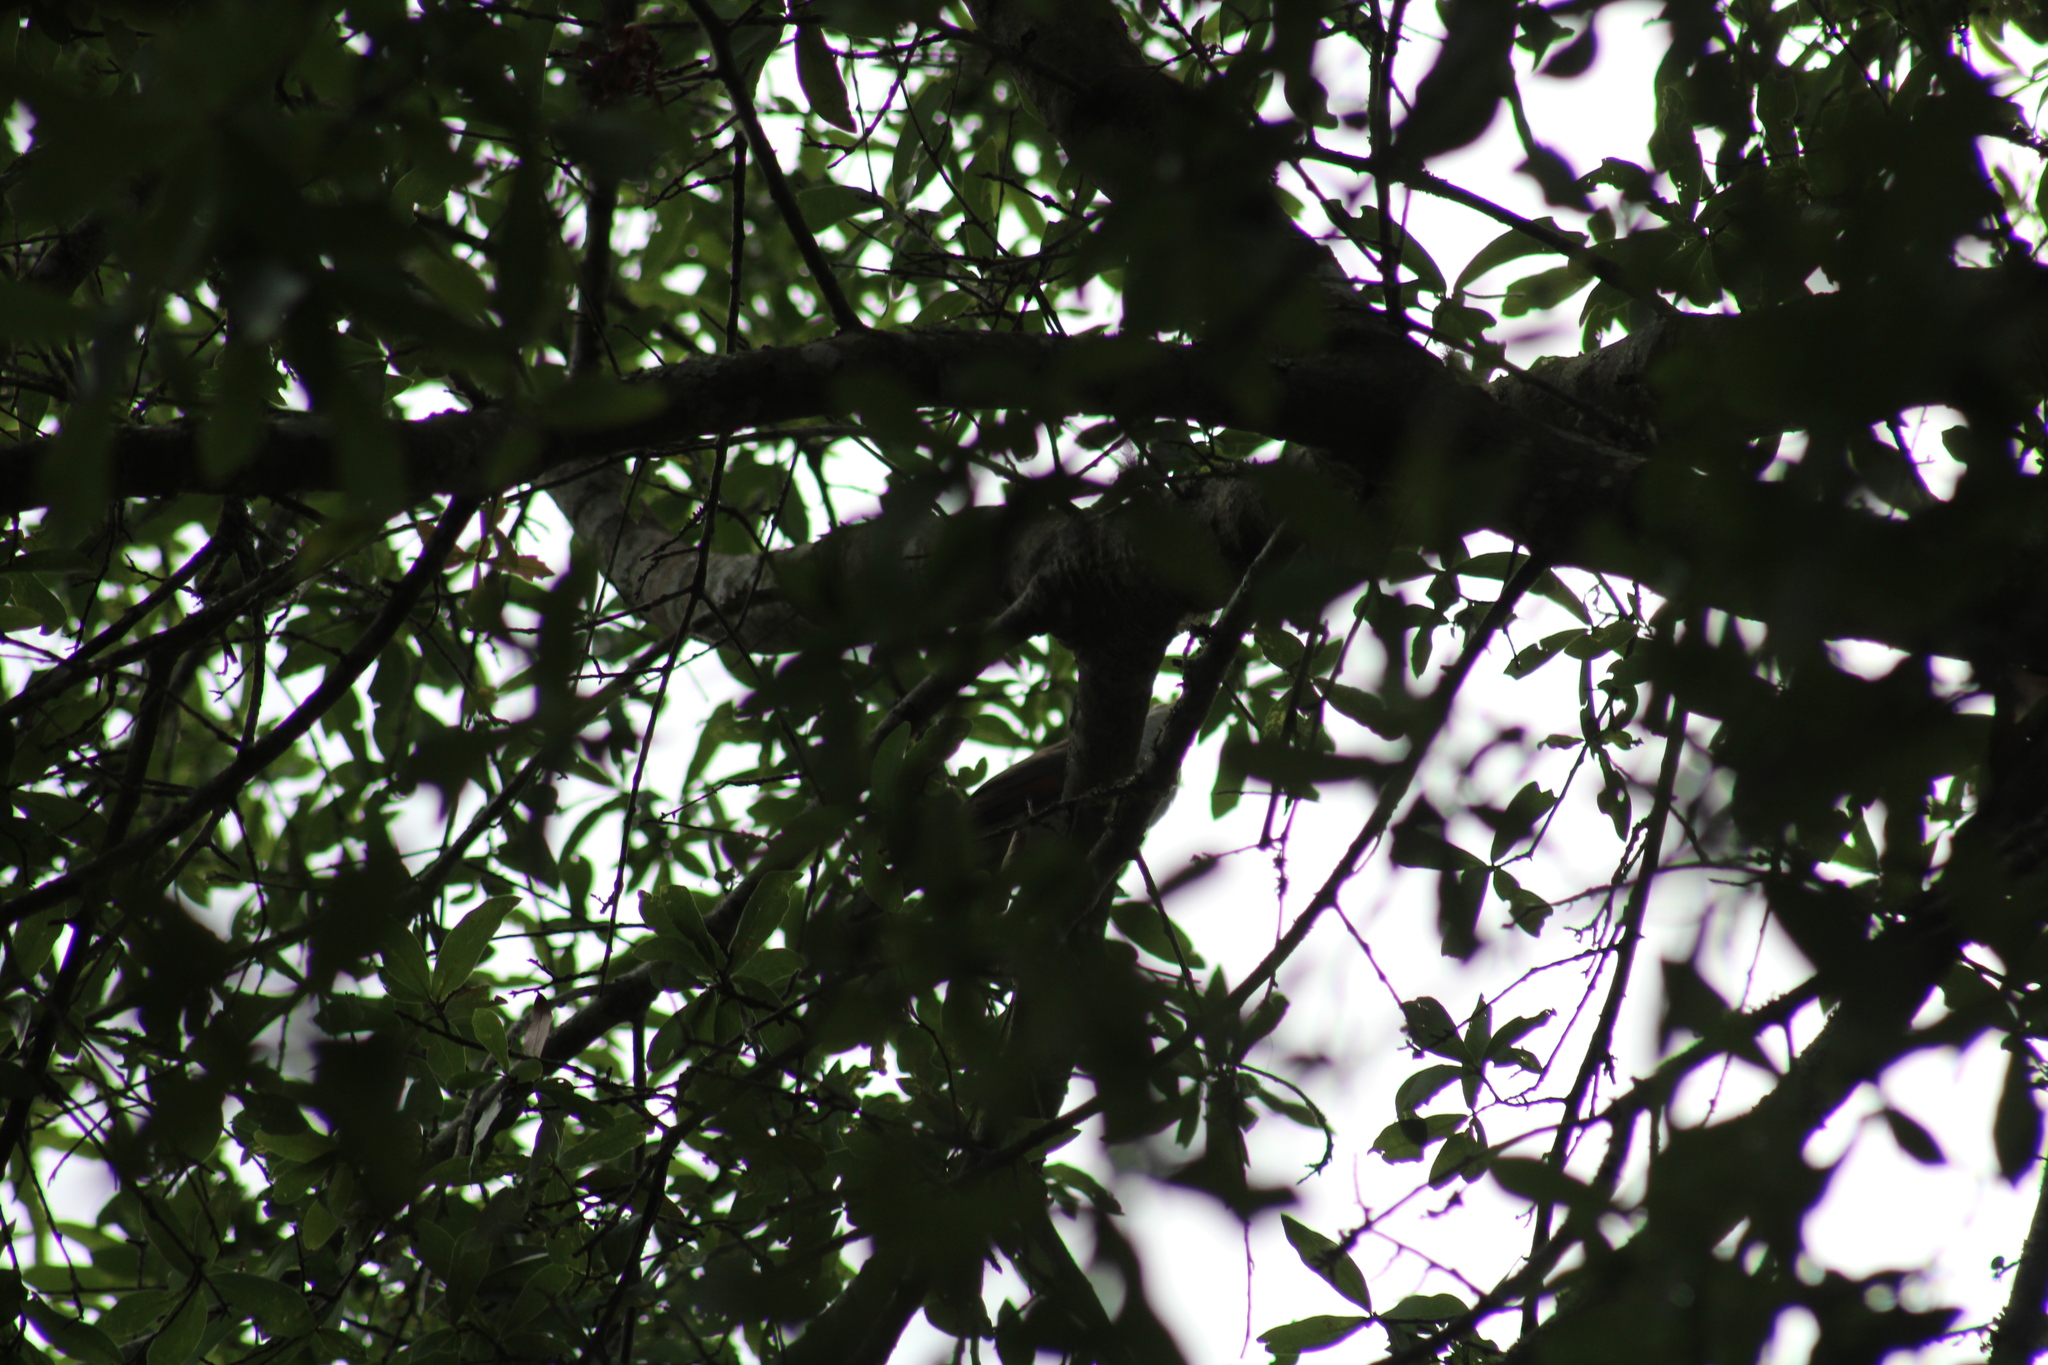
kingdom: Animalia
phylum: Chordata
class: Aves
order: Cuculiformes
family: Cuculidae
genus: Coccyzus
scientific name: Coccyzus americanus
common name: Yellow-billed cuckoo
